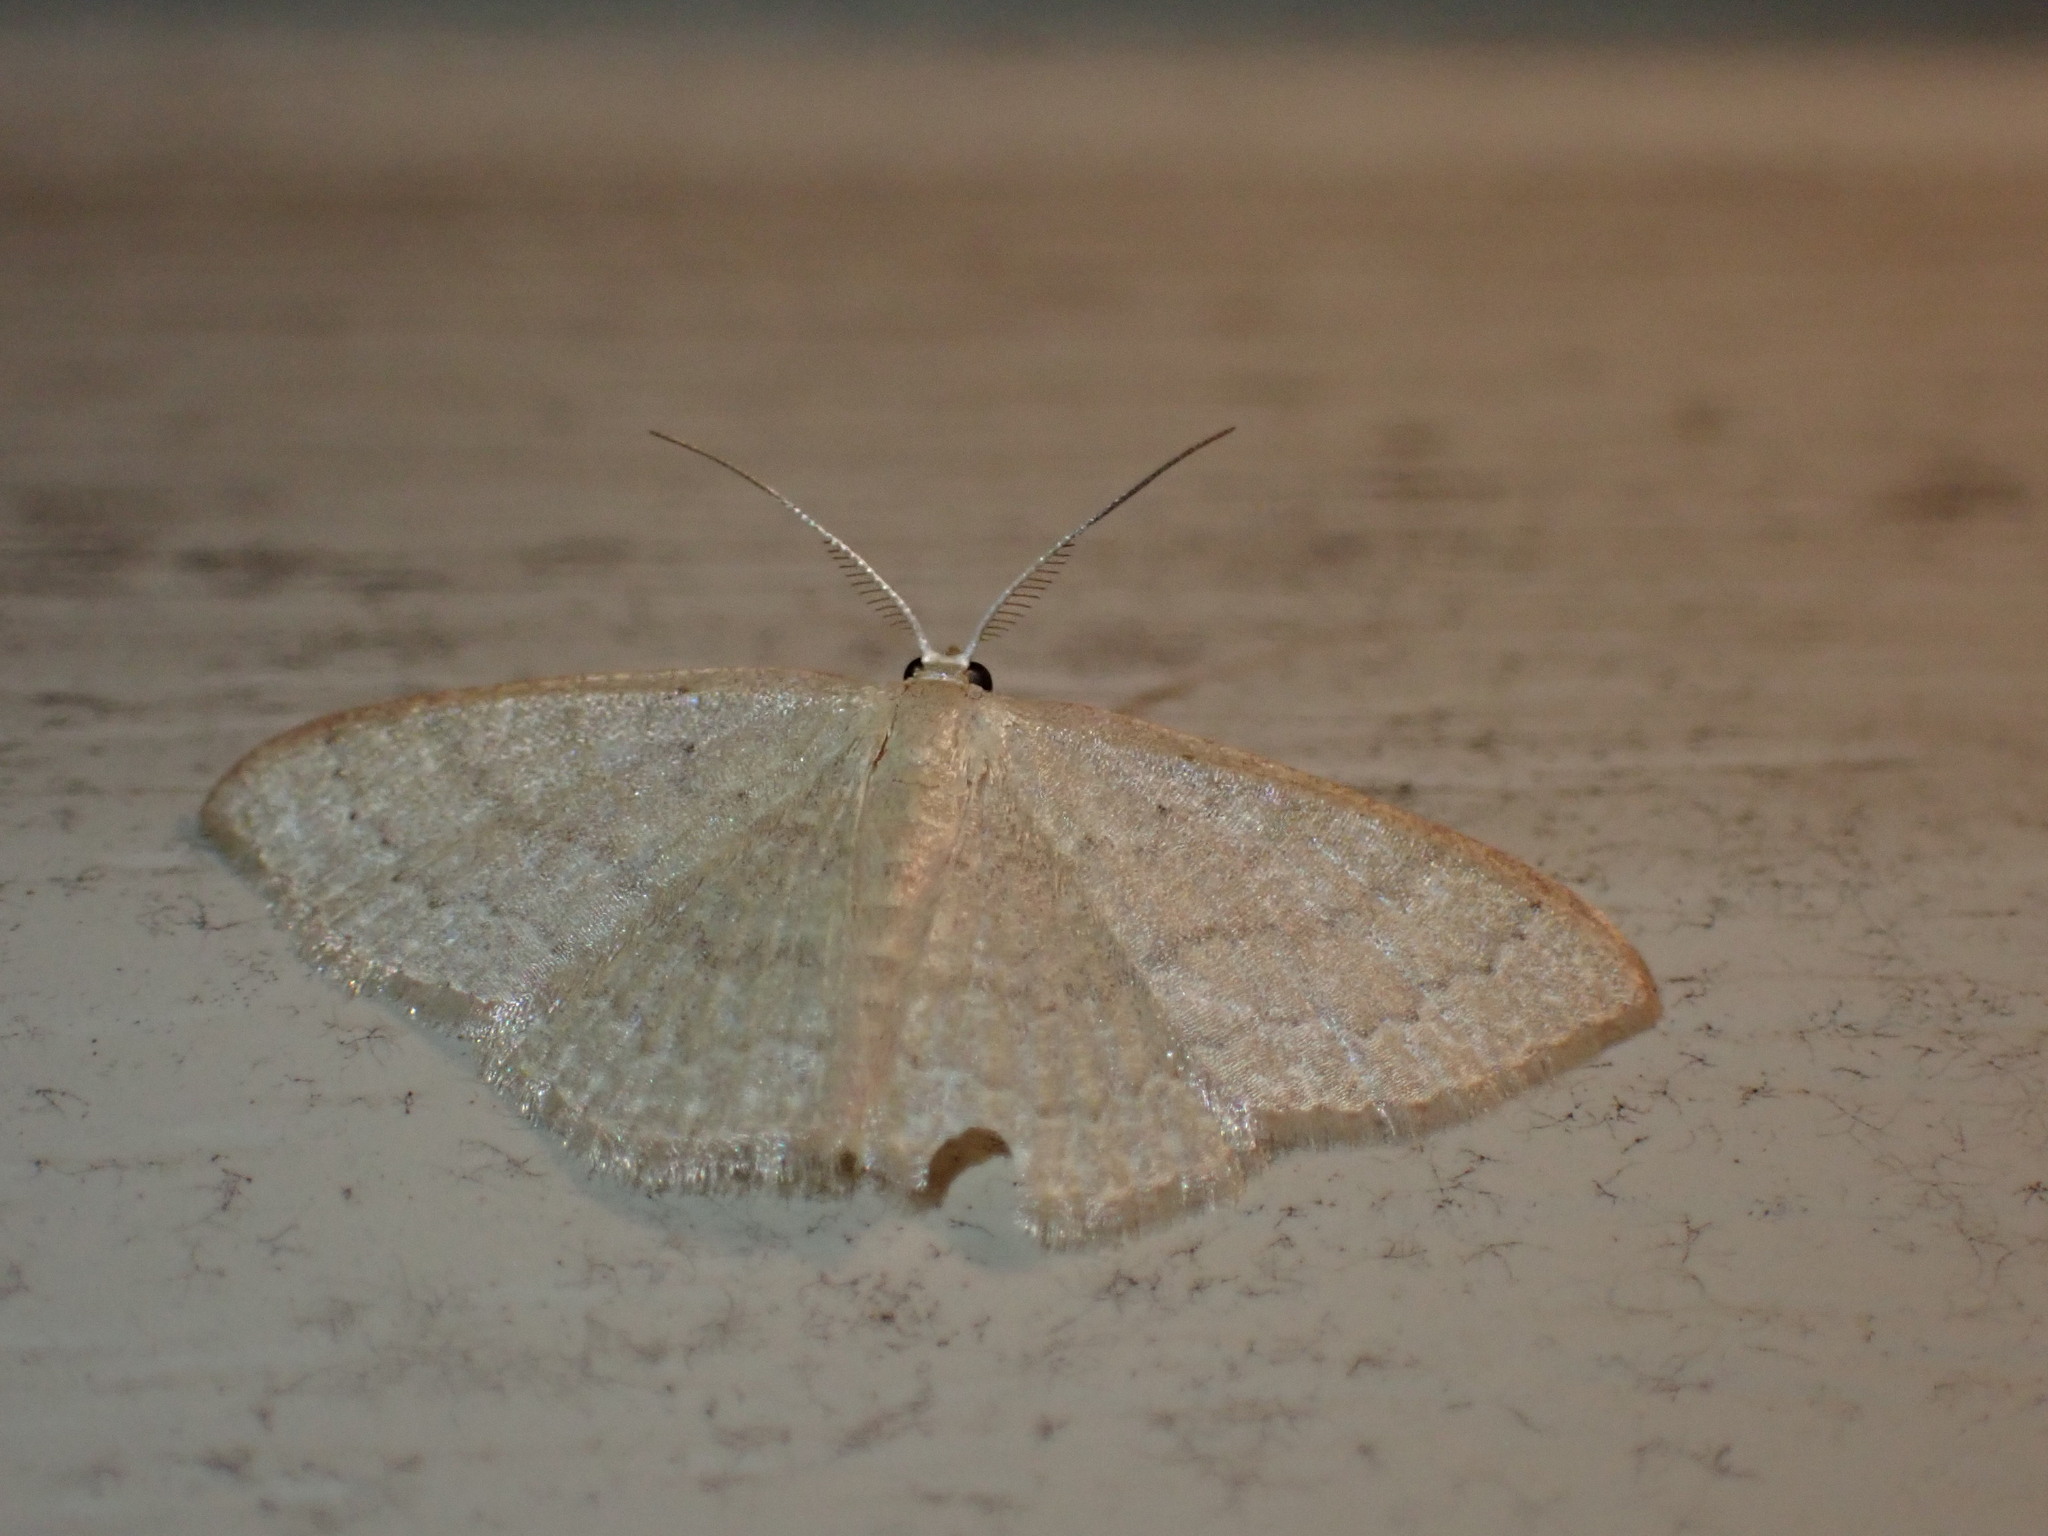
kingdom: Animalia
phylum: Arthropoda
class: Insecta
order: Lepidoptera
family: Geometridae
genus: Pleuroprucha
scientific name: Pleuroprucha insulsaria
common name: Common tan wave
